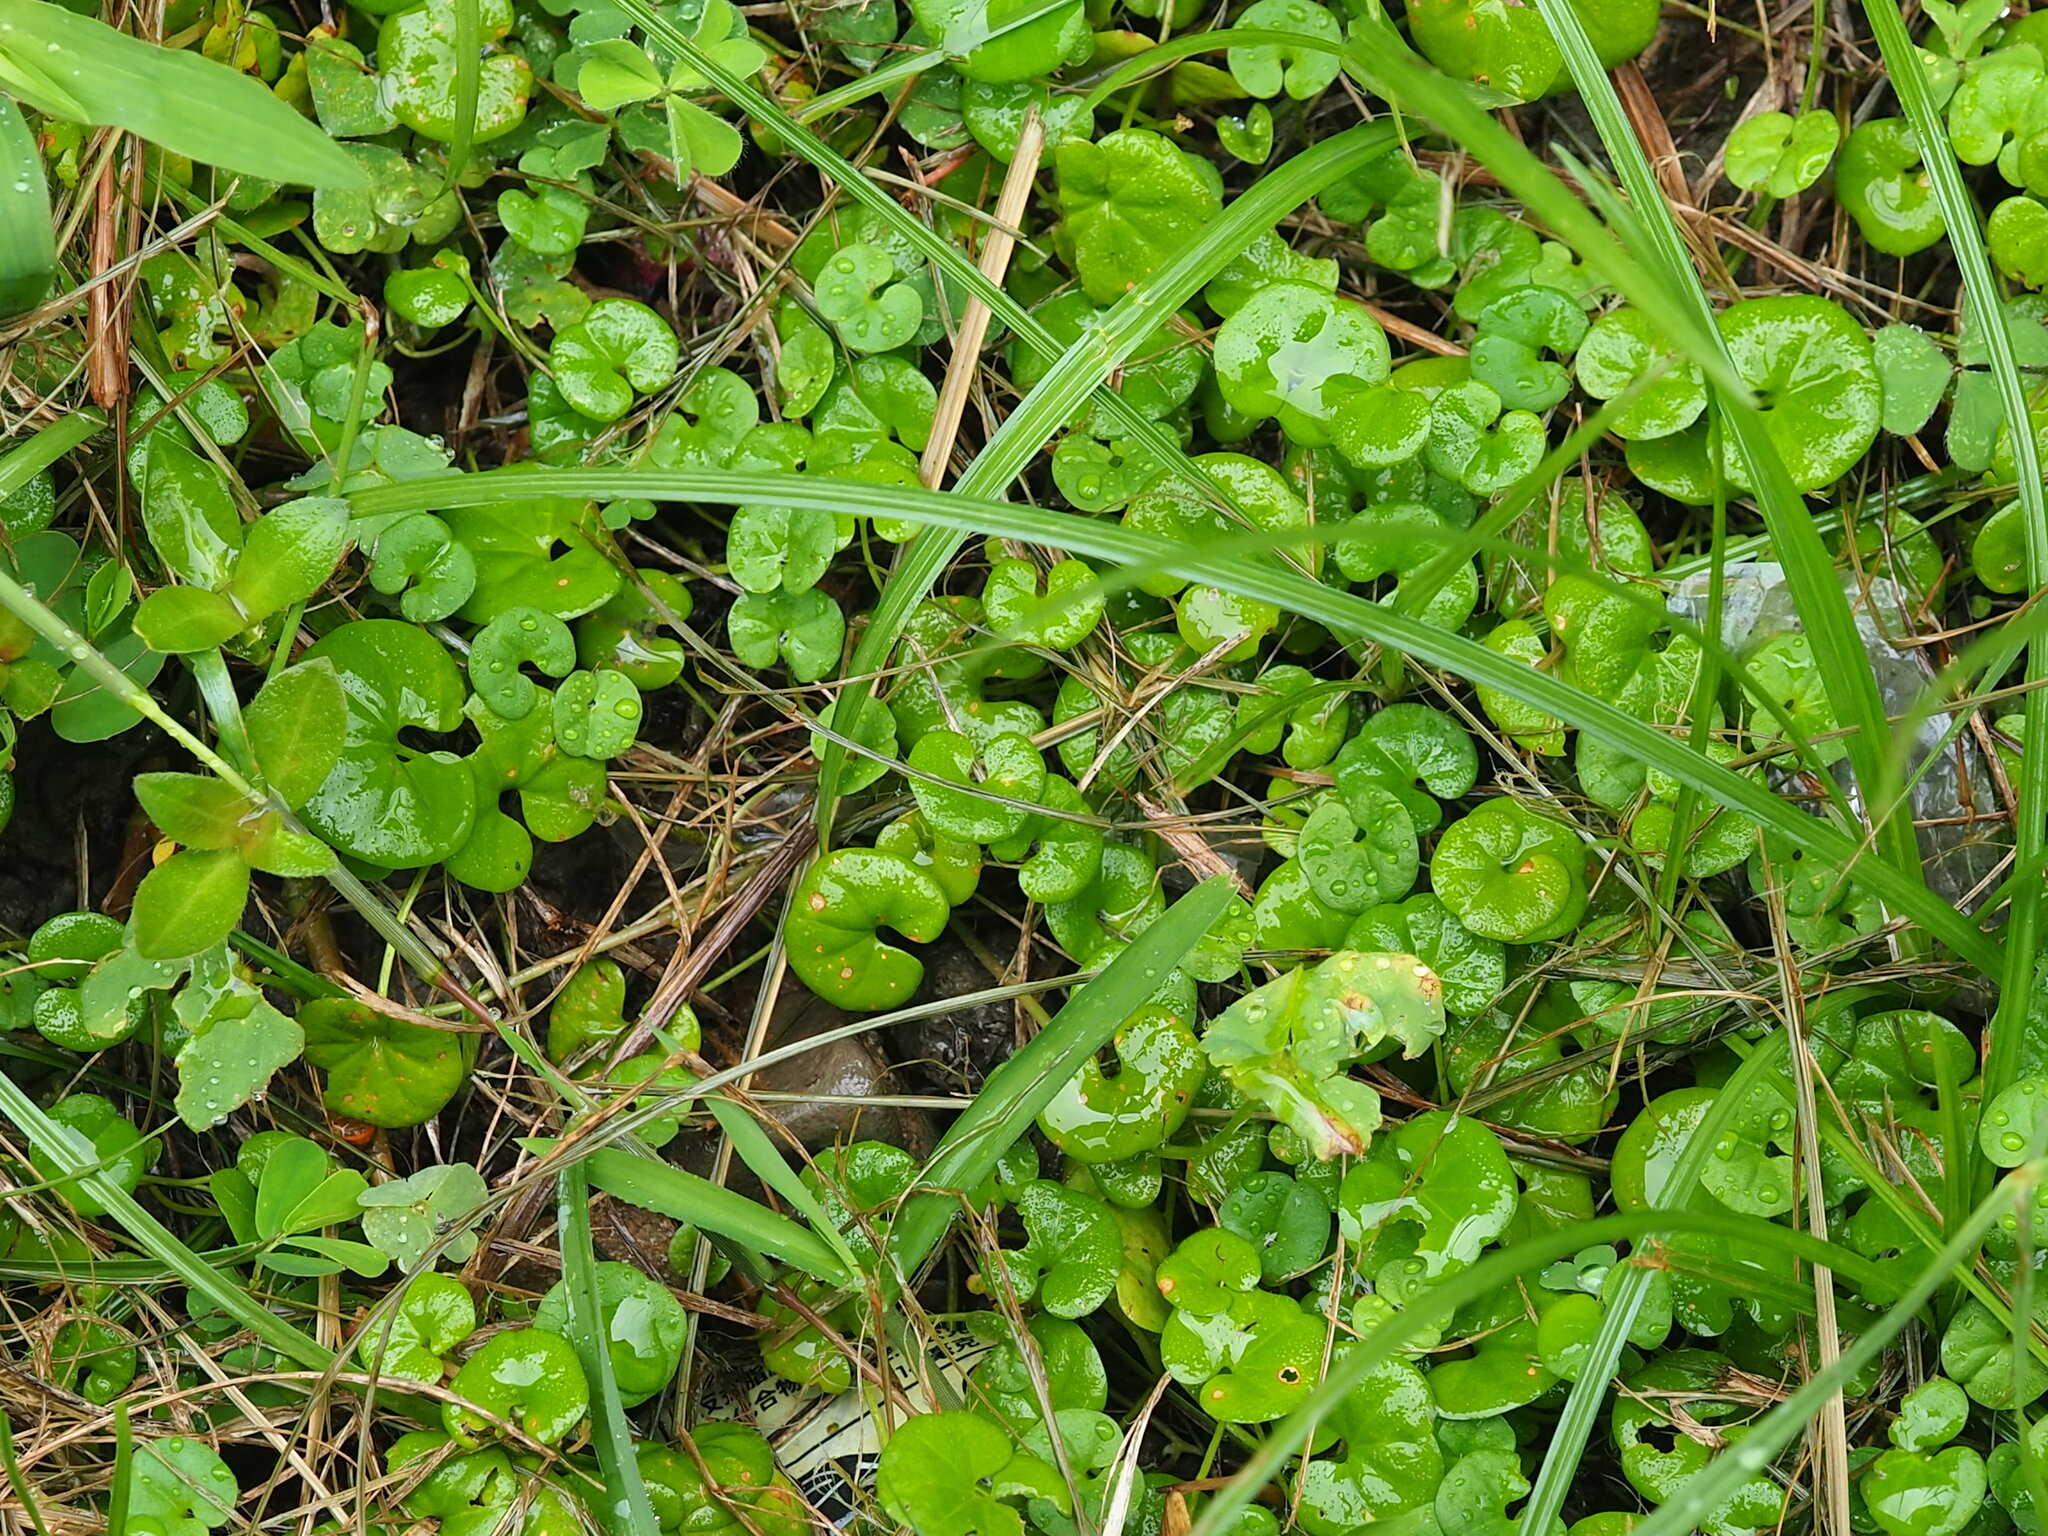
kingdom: Plantae
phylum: Tracheophyta
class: Magnoliopsida
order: Solanales
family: Convolvulaceae
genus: Dichondra
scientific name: Dichondra micrantha
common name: Kidneyweed
